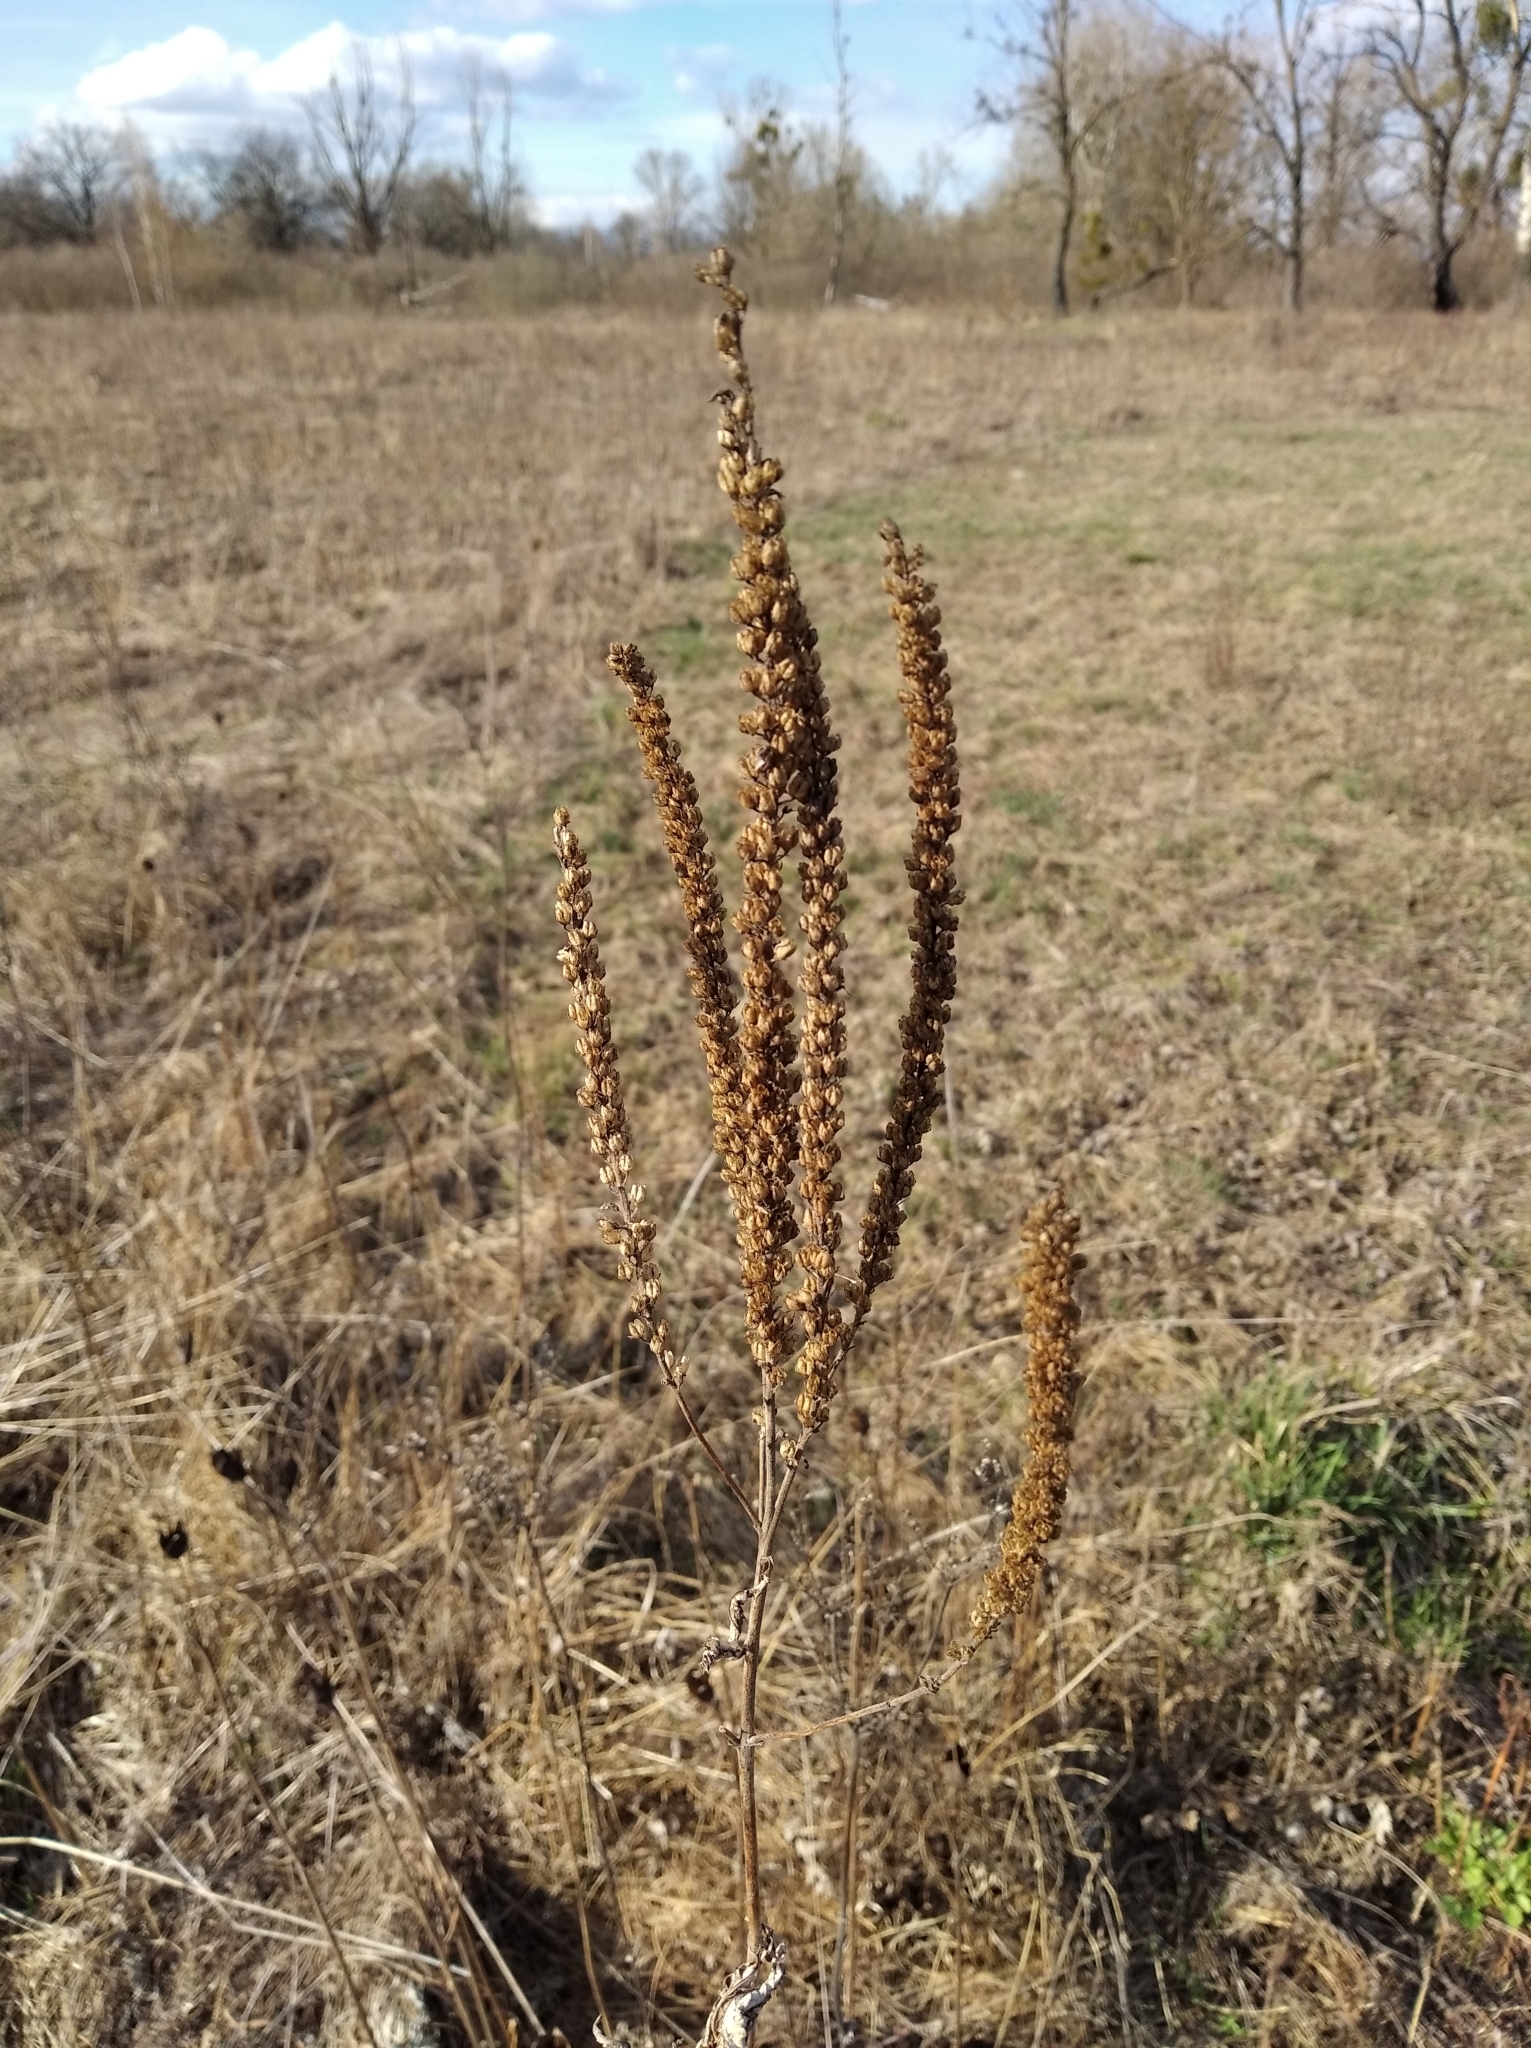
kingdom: Plantae
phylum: Tracheophyta
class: Magnoliopsida
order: Lamiales
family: Orobanchaceae
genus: Odontites
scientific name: Odontites vulgaris
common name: Broomrape
